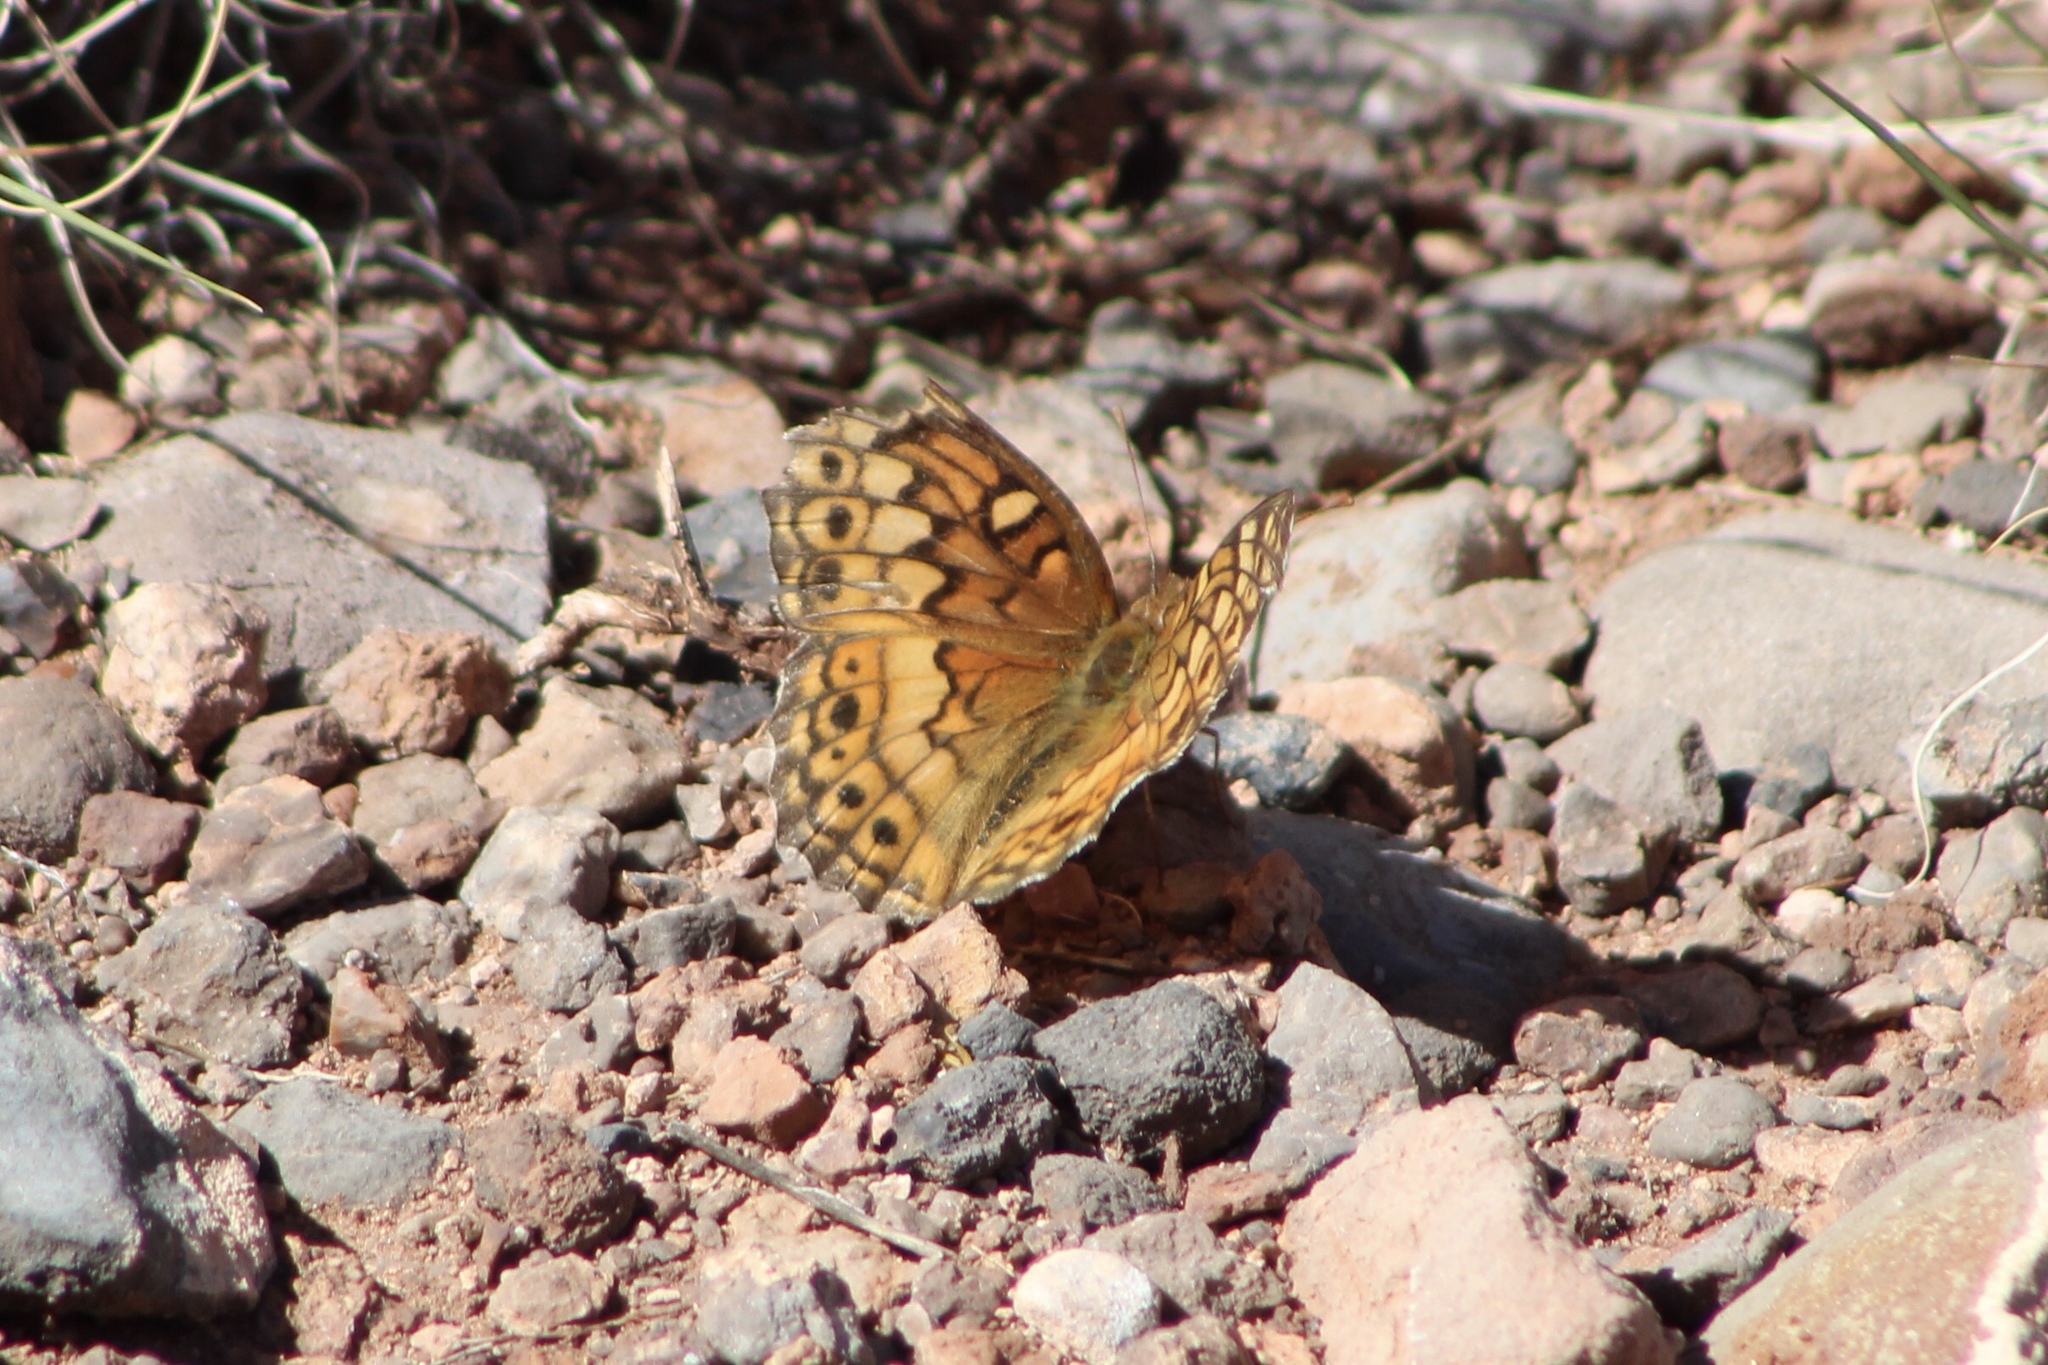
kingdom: Animalia
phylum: Arthropoda
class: Insecta
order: Lepidoptera
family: Nymphalidae
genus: Euptoieta
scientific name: Euptoieta claudia
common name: Variegated fritillary
